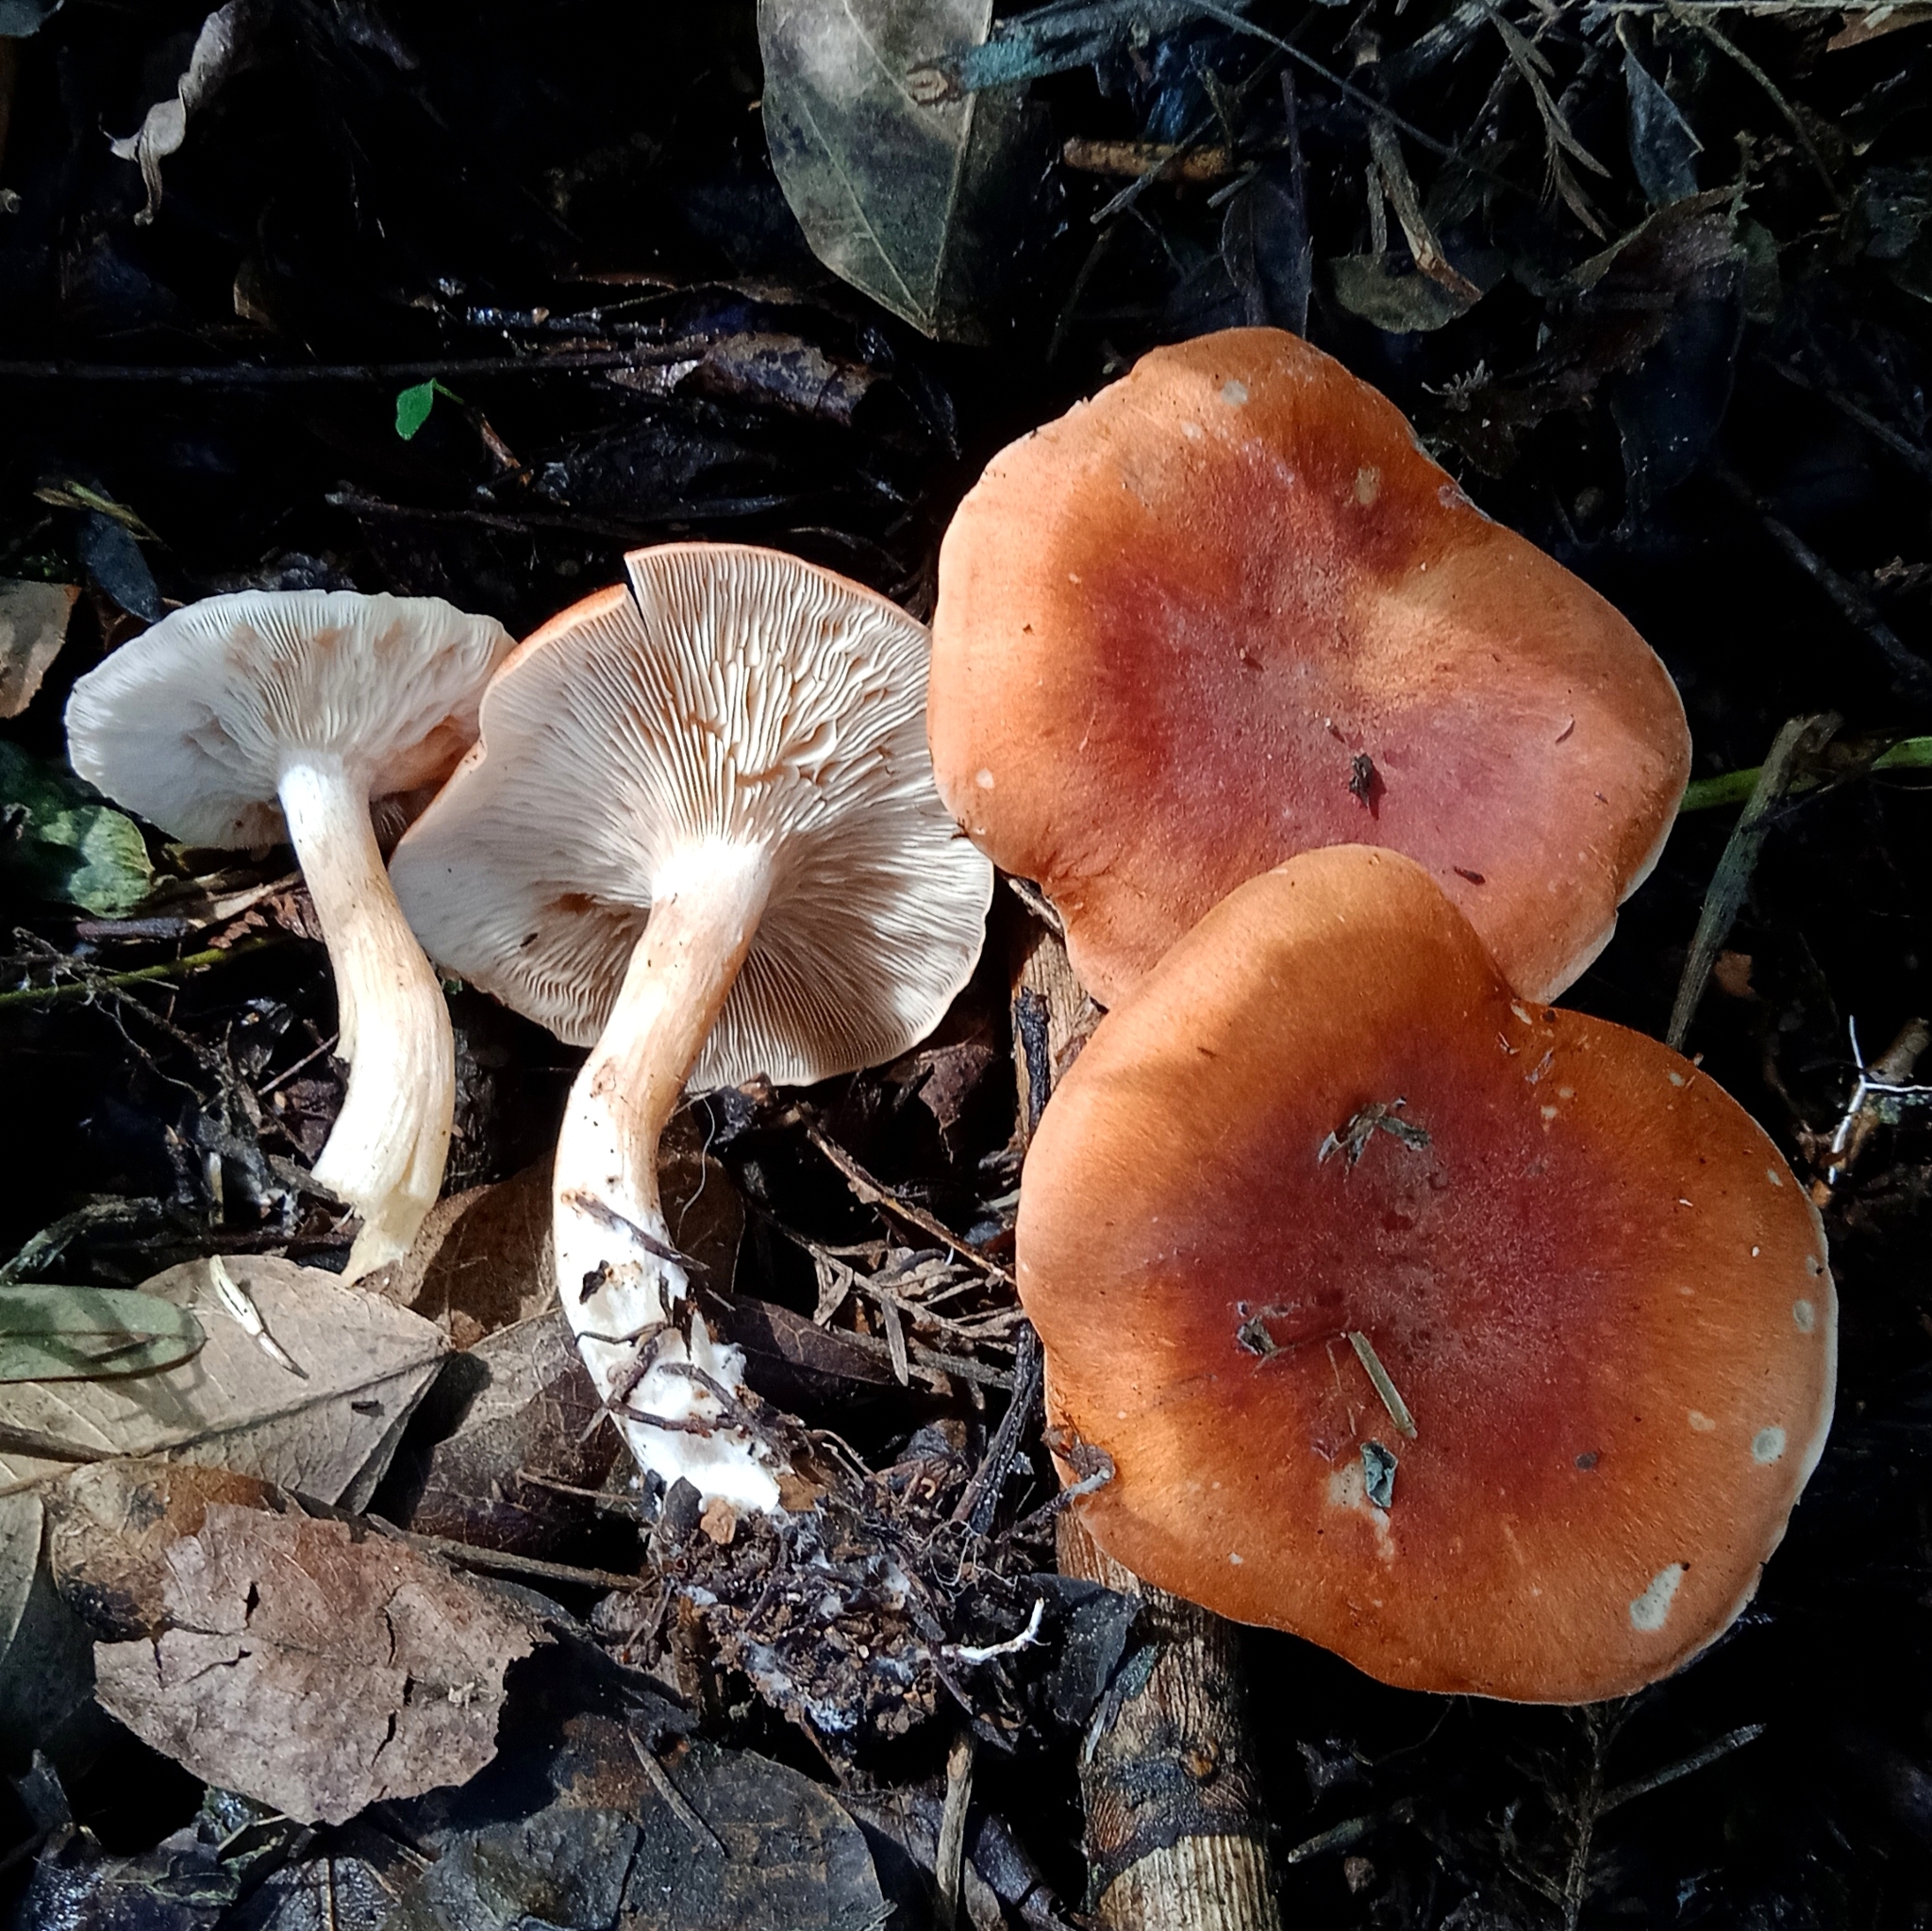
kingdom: Fungi
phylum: Basidiomycota
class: Agaricomycetes
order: Agaricales
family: Tricholomataceae
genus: Leucopaxillus
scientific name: Leucopaxillus gracillimus
